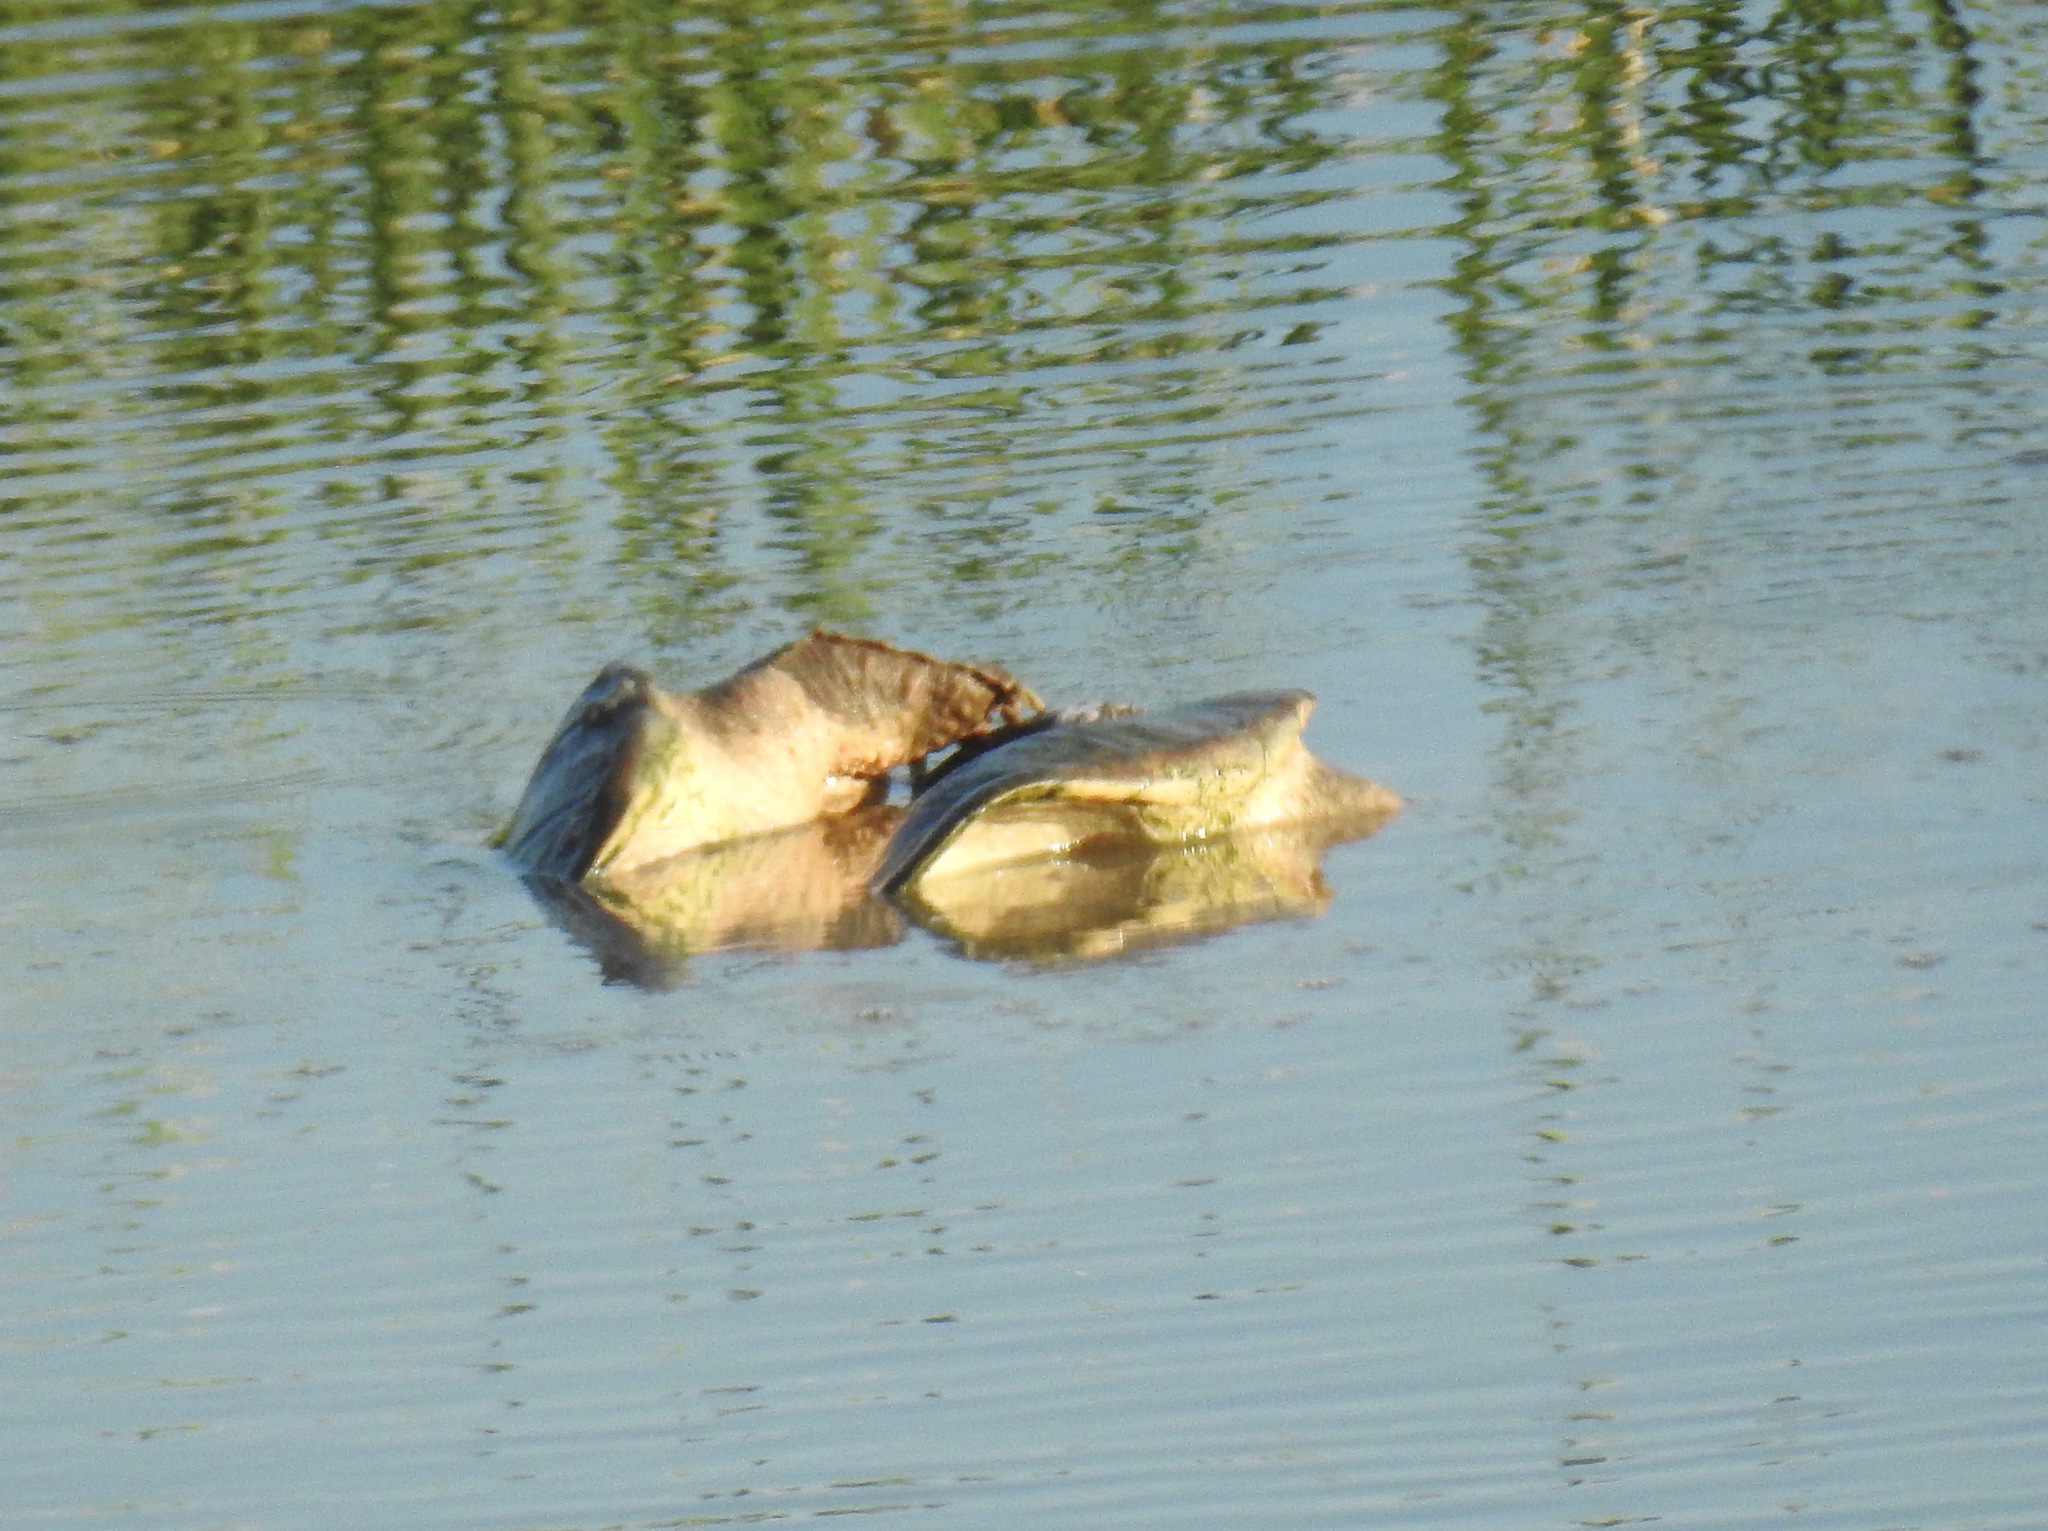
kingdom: Animalia
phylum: Chordata
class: Testudines
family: Chelydridae
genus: Chelydra
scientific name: Chelydra serpentina
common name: Common snapping turtle
